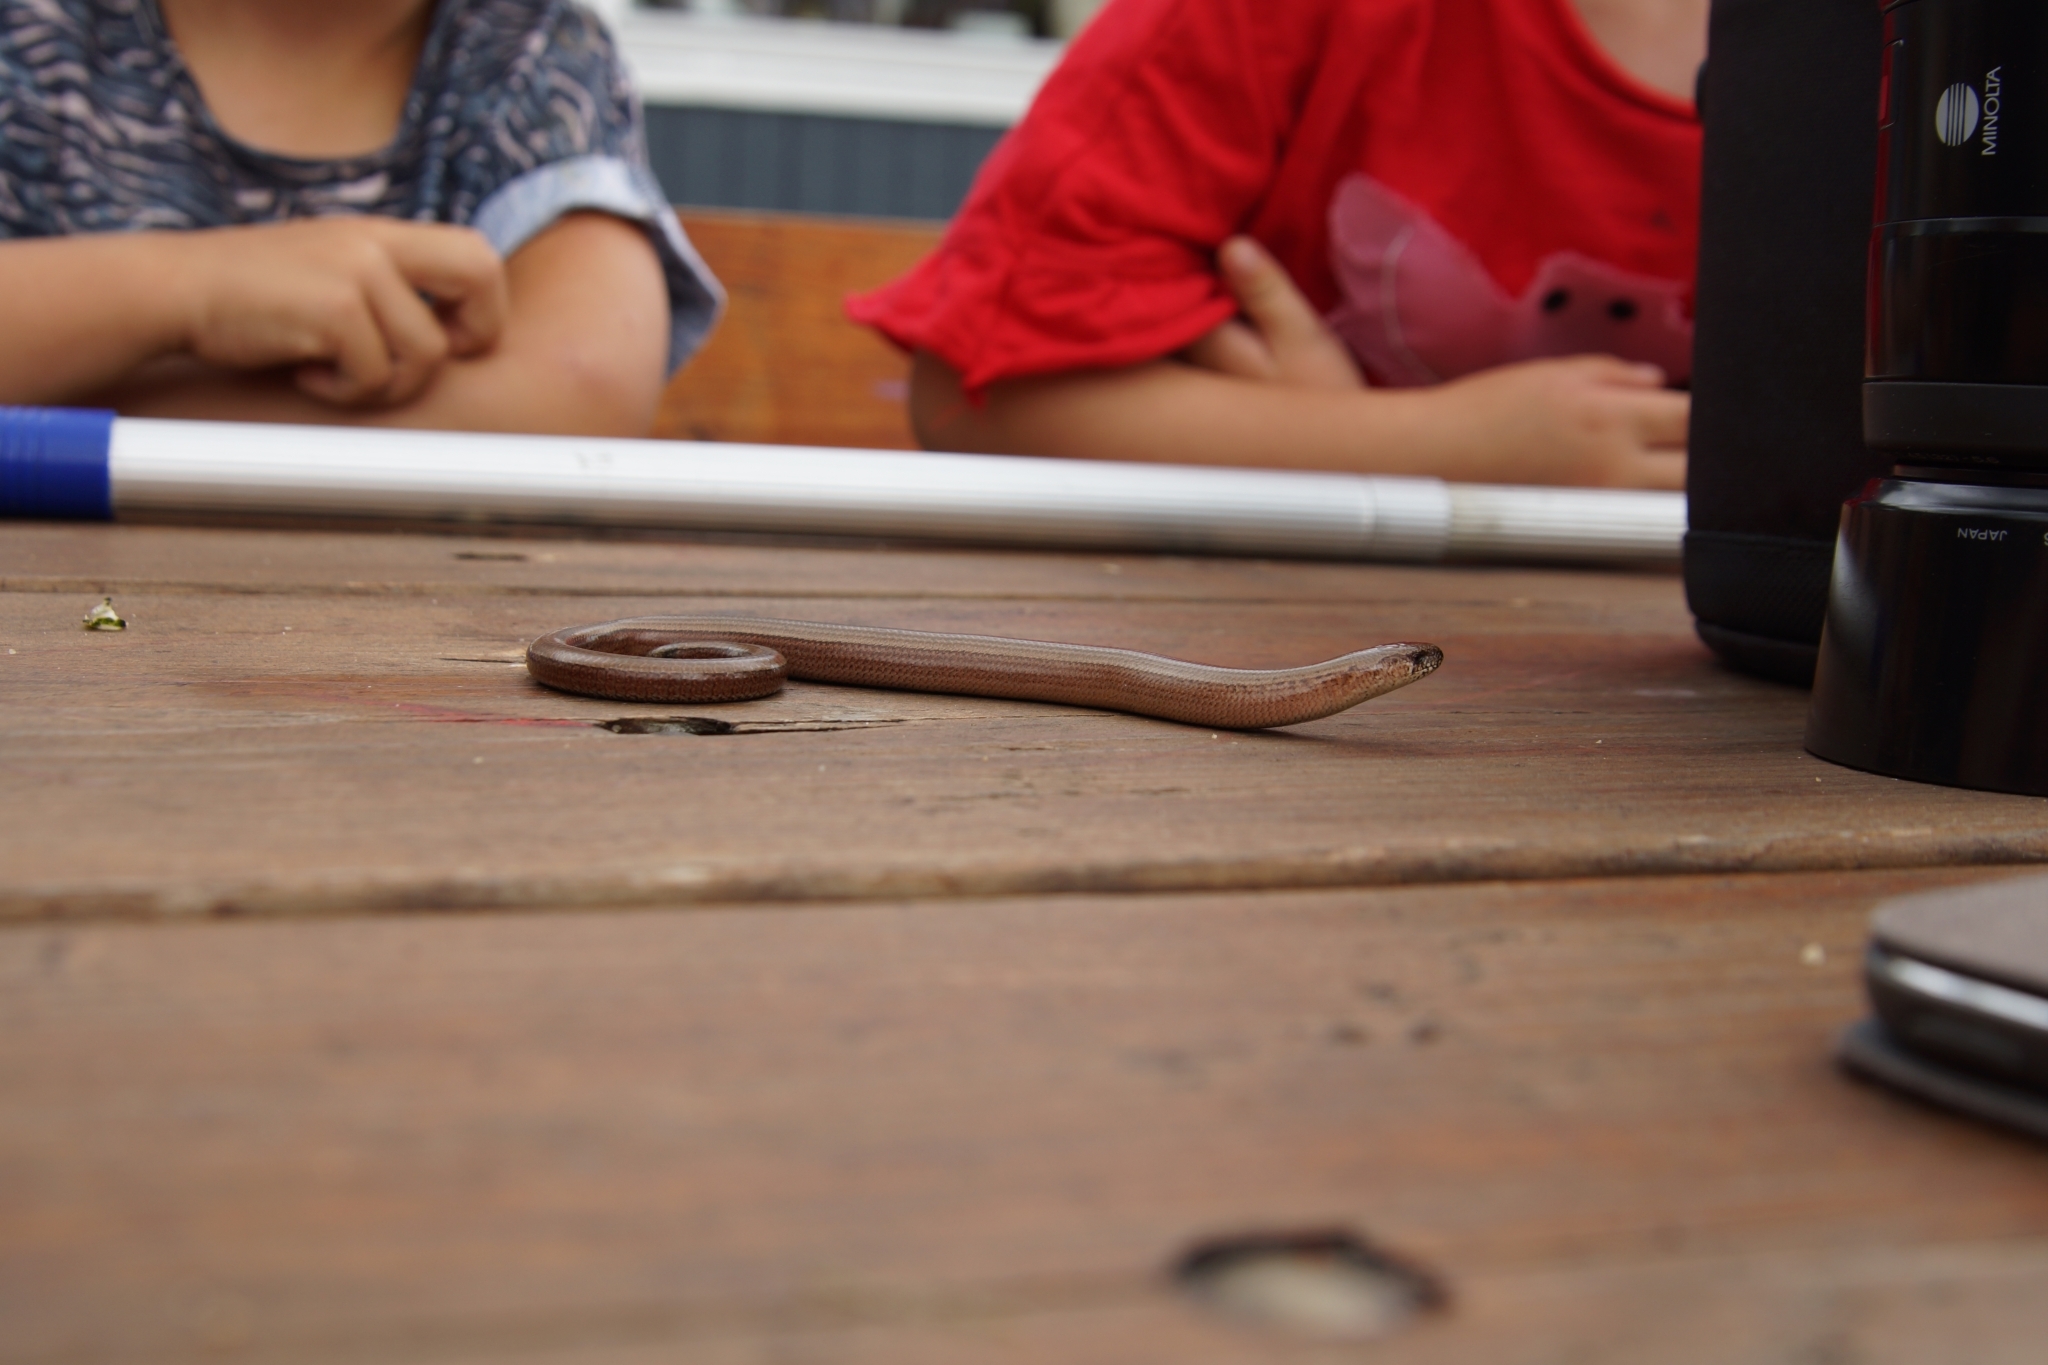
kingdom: Animalia
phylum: Chordata
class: Squamata
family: Anguidae
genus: Anguis
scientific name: Anguis fragilis
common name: Slow worm
